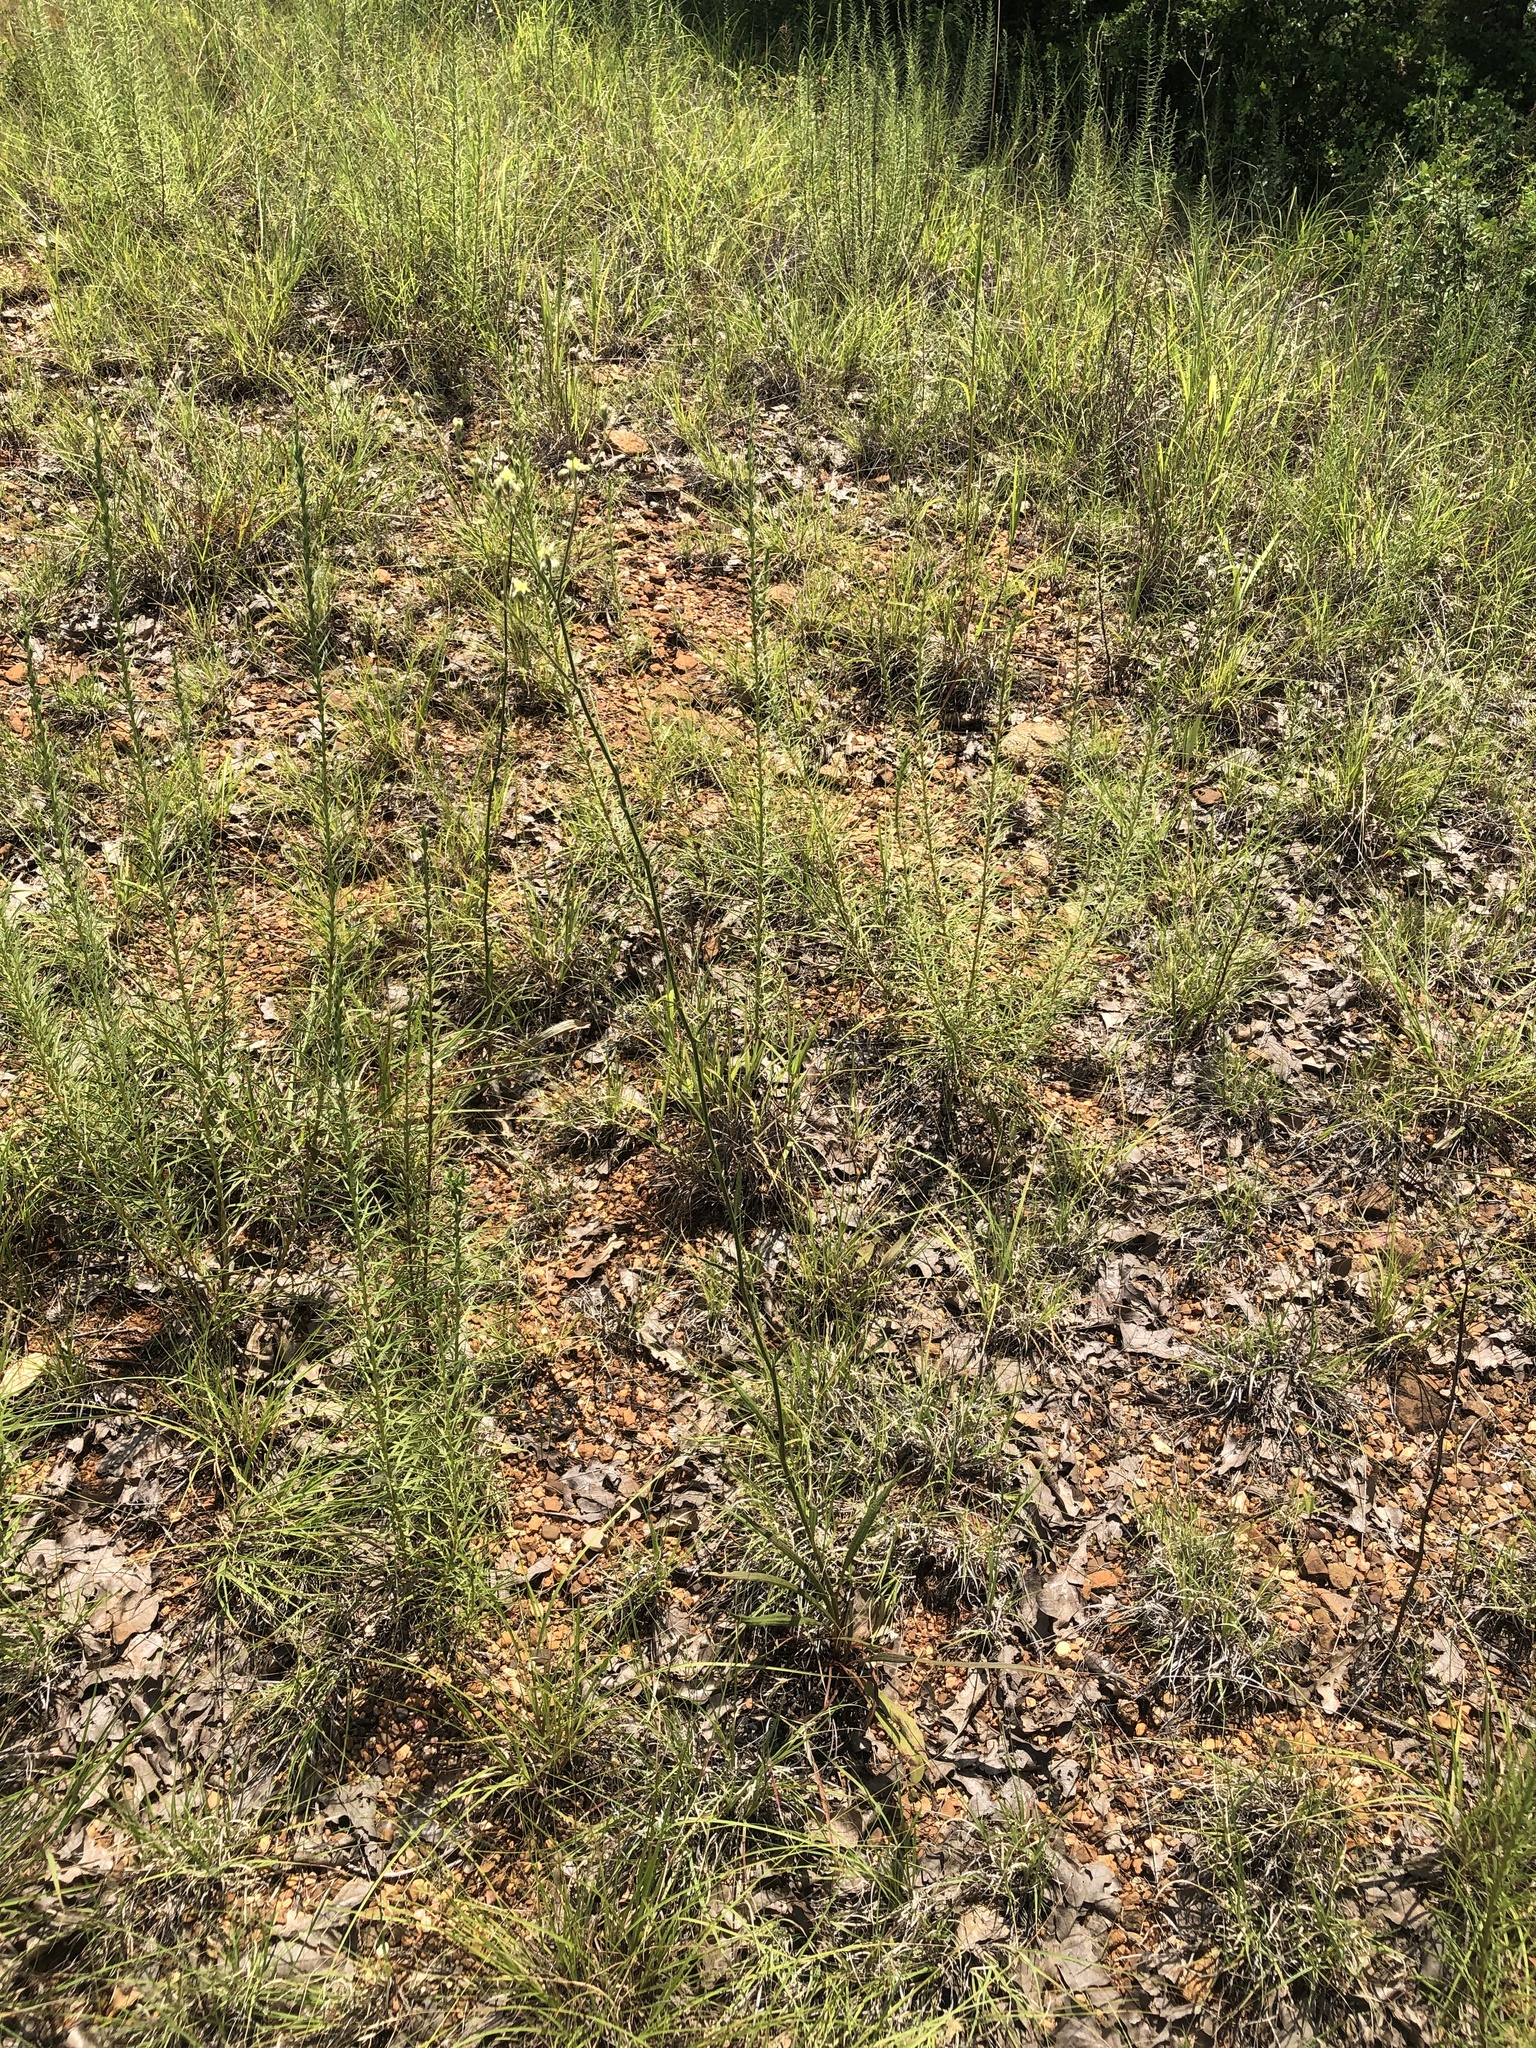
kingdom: Plantae
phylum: Tracheophyta
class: Magnoliopsida
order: Caryophyllales
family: Polygonaceae
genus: Eriogonum
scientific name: Eriogonum longifolium
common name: Longleaf wild buckwheat
